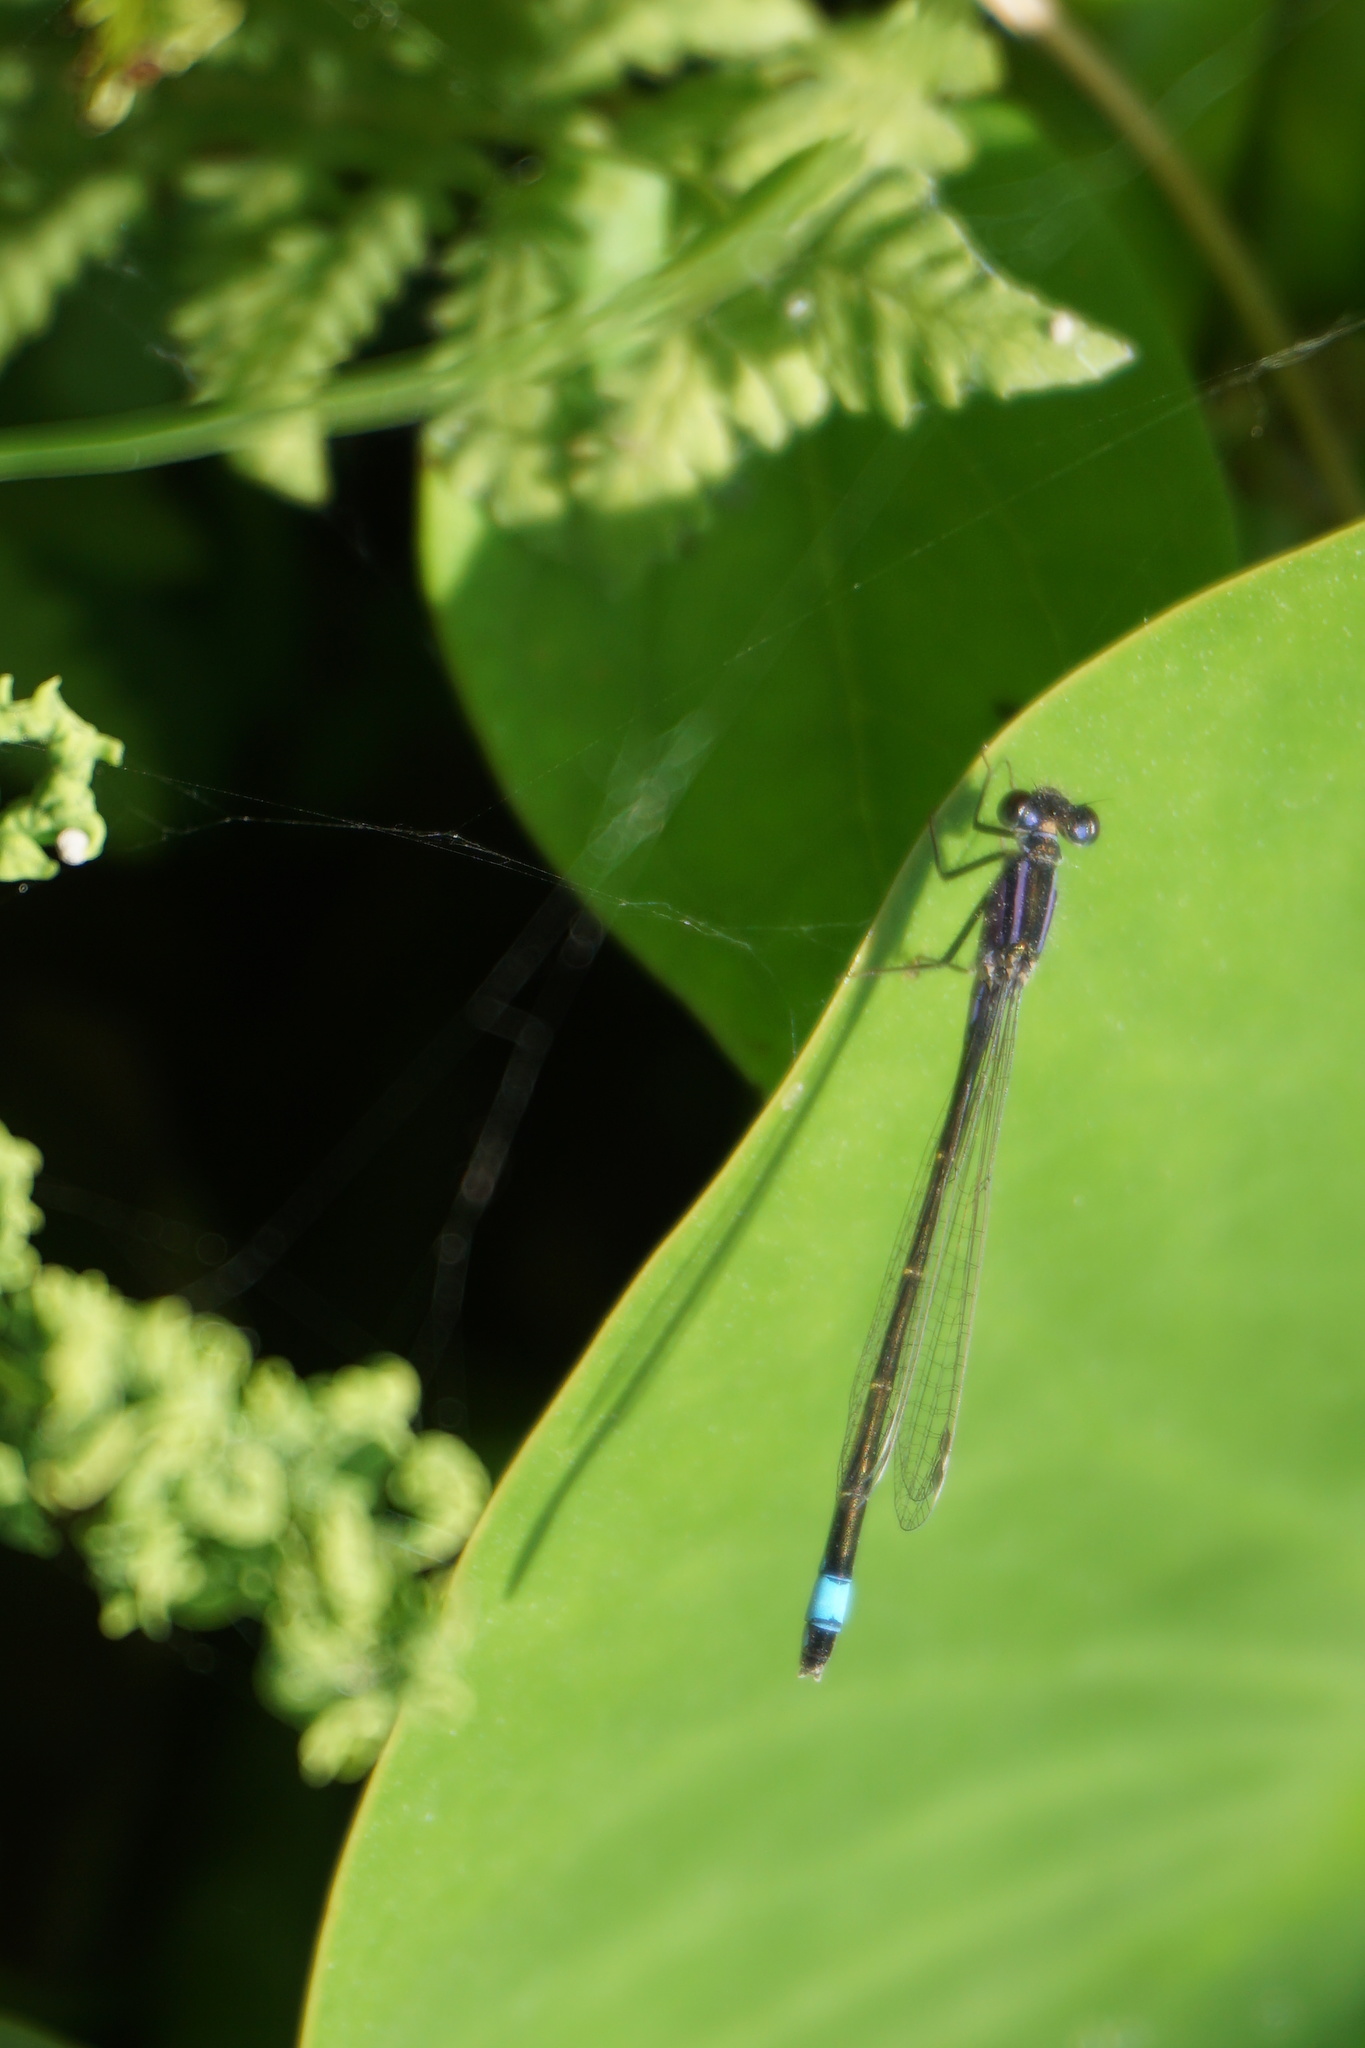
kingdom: Animalia
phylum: Arthropoda
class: Insecta
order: Odonata
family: Coenagrionidae
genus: Ischnura
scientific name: Ischnura elegans
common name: Blue-tailed damselfly
